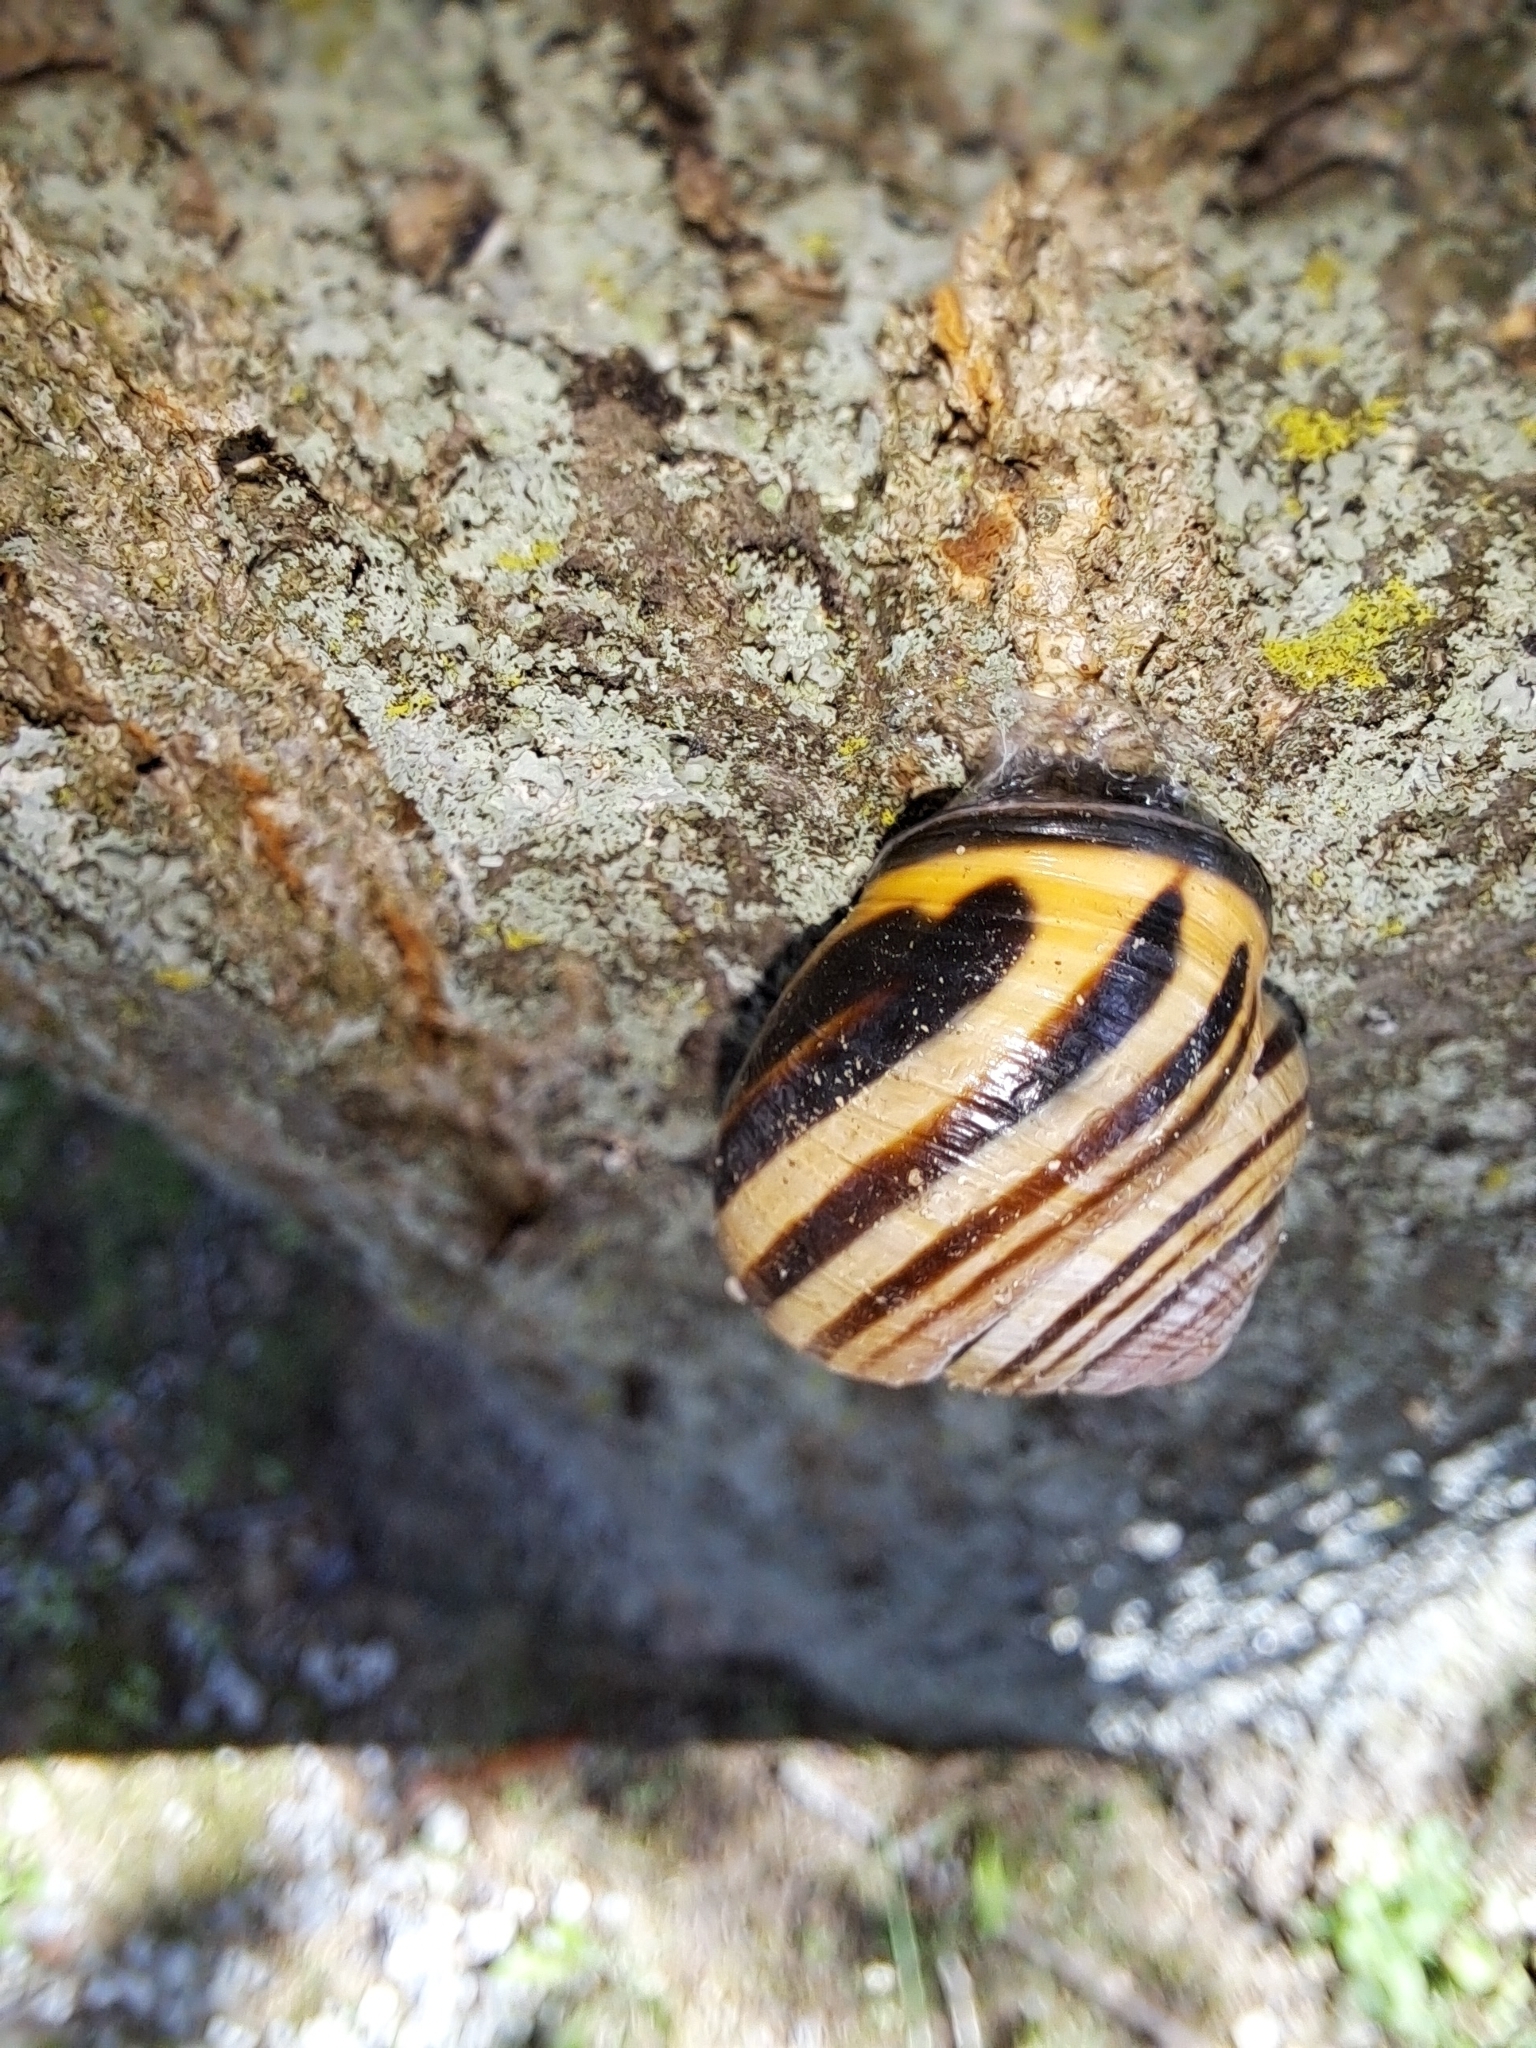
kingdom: Animalia
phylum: Mollusca
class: Gastropoda
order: Stylommatophora
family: Helicidae
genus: Cepaea
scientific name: Cepaea nemoralis
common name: Grovesnail
